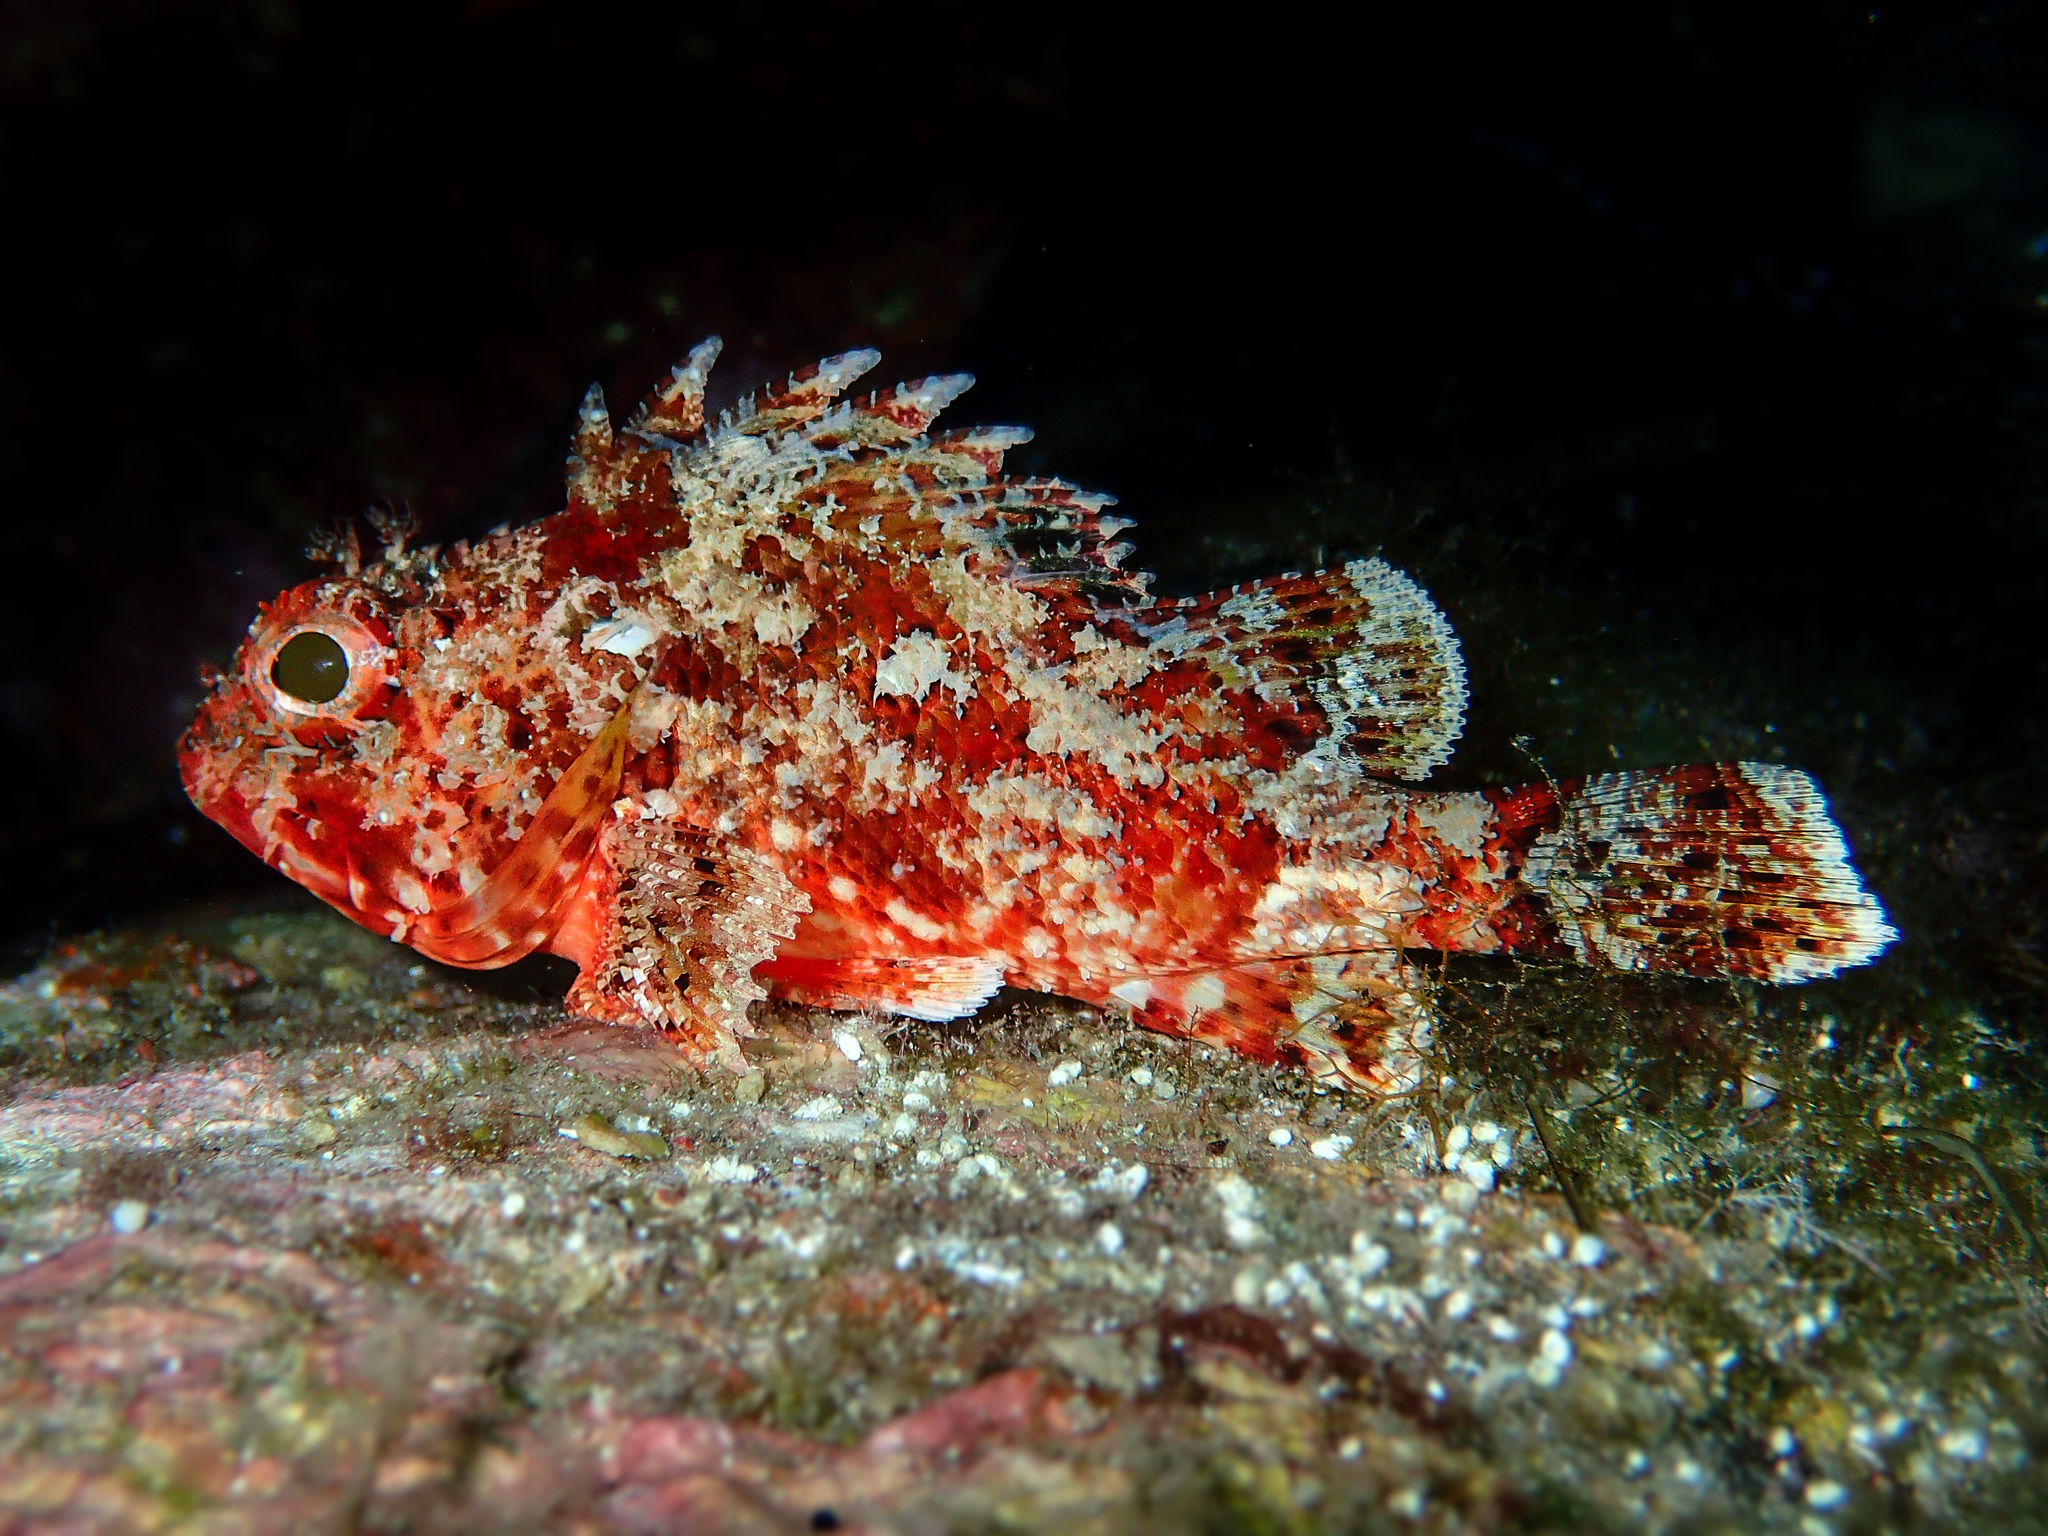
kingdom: Animalia
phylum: Chordata
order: Scorpaeniformes
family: Scorpaenidae
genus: Scorpaena
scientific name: Scorpaena notata
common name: Small red scorpionfish
